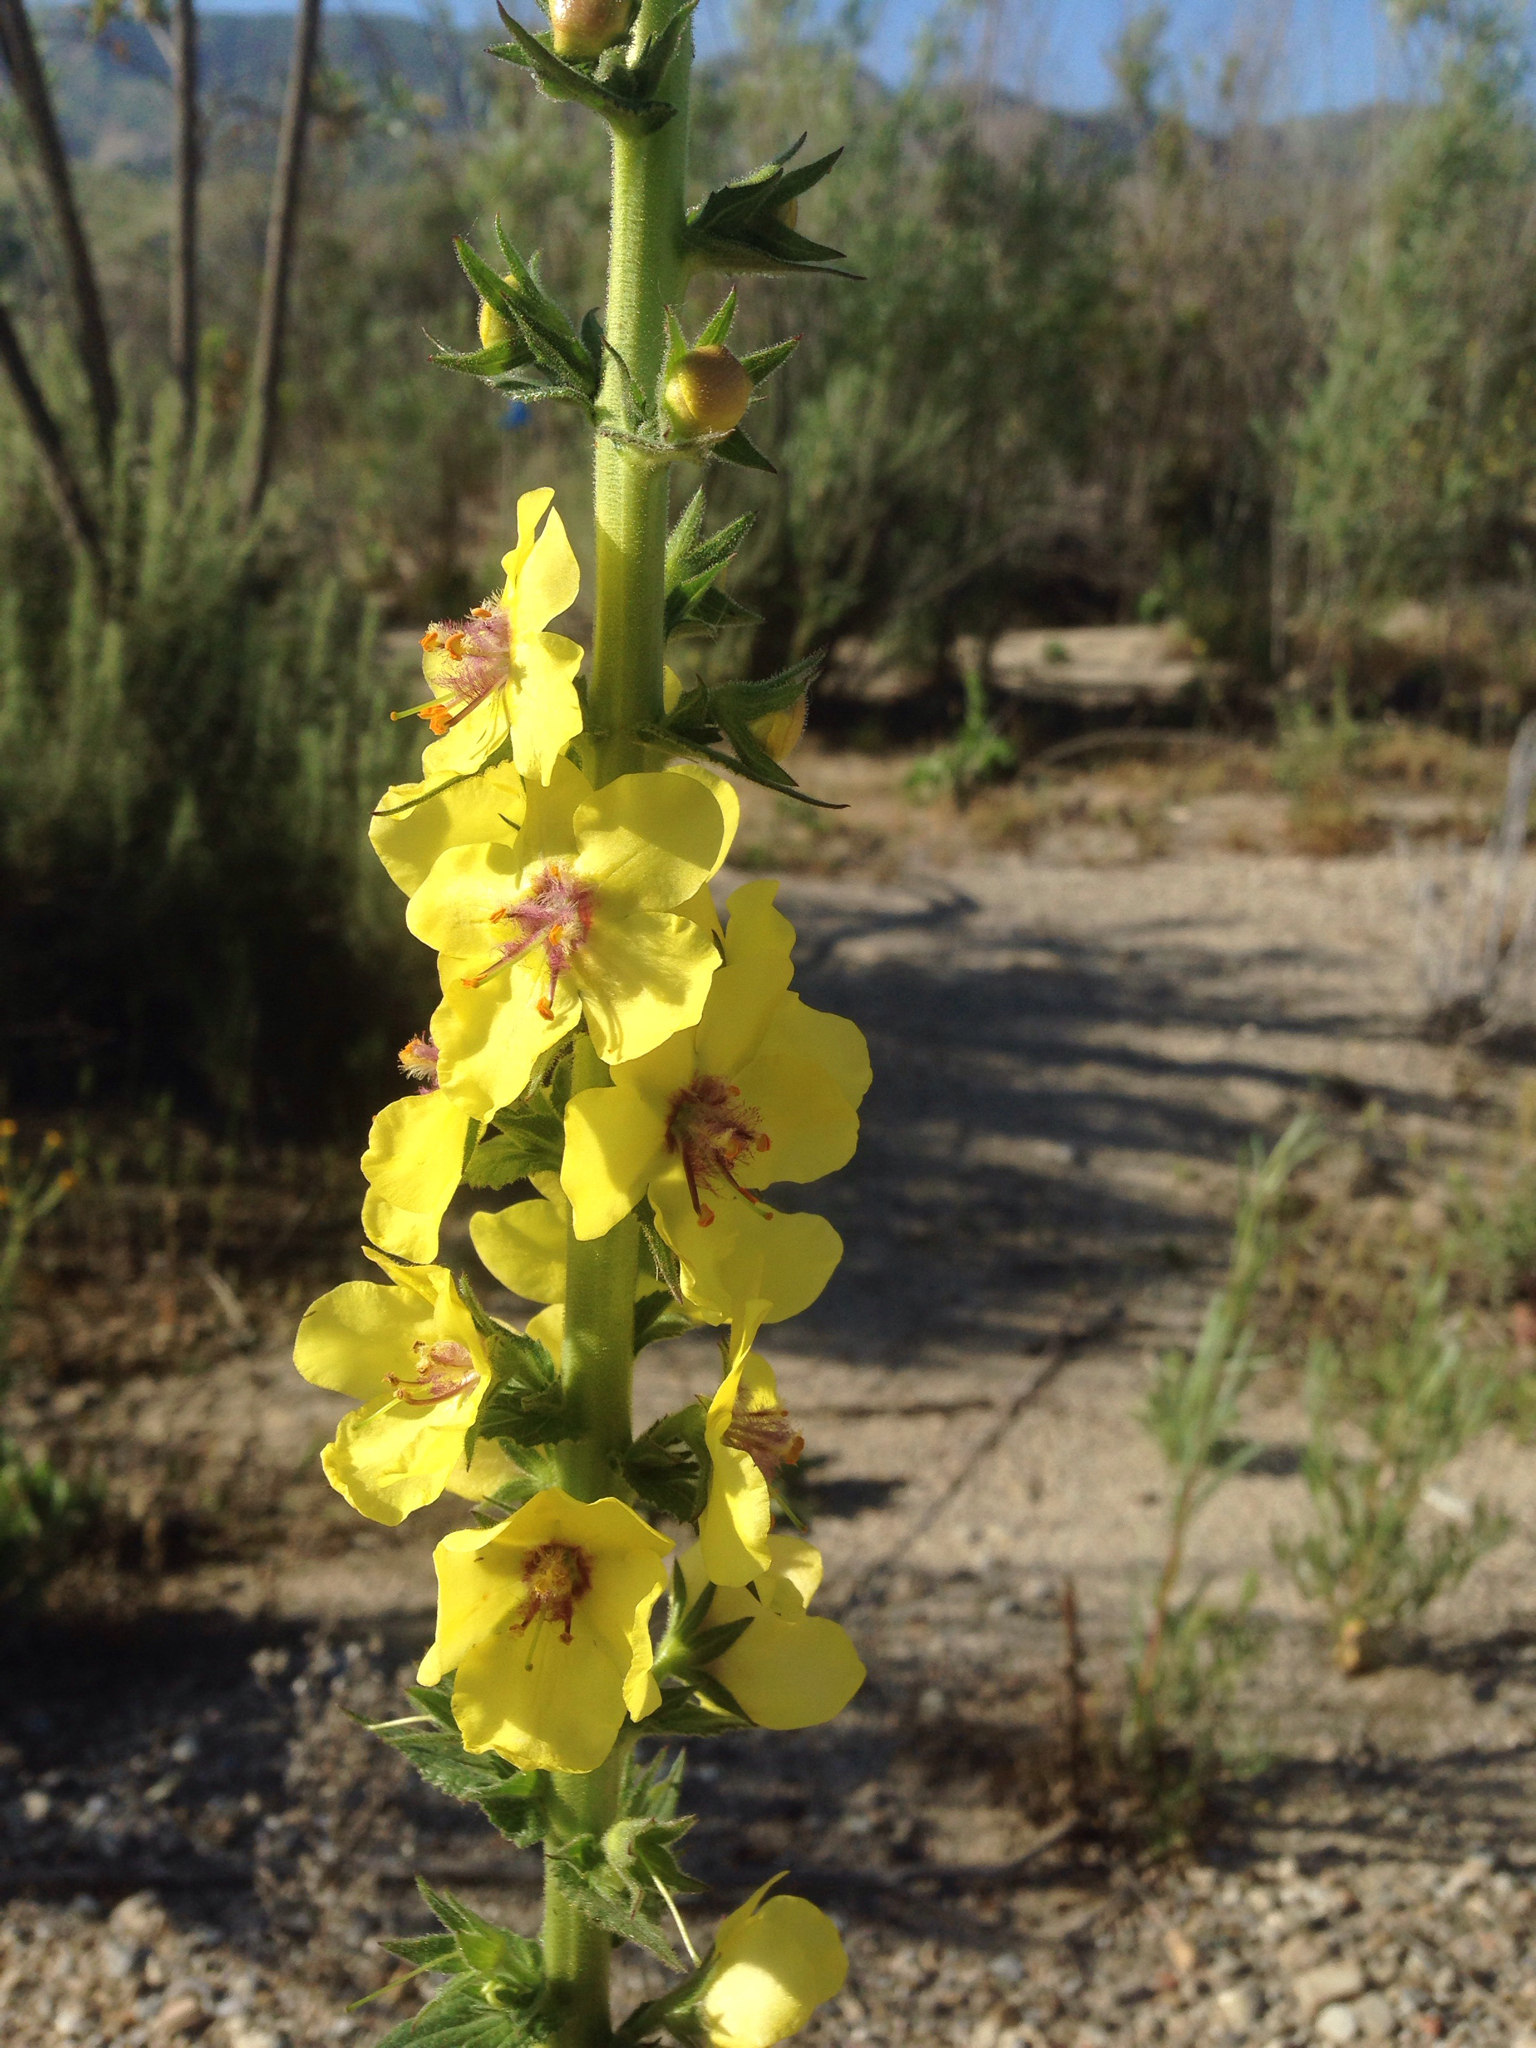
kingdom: Plantae
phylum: Tracheophyta
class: Magnoliopsida
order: Lamiales
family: Scrophulariaceae
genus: Verbascum
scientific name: Verbascum virgatum
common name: Twiggy mullein
